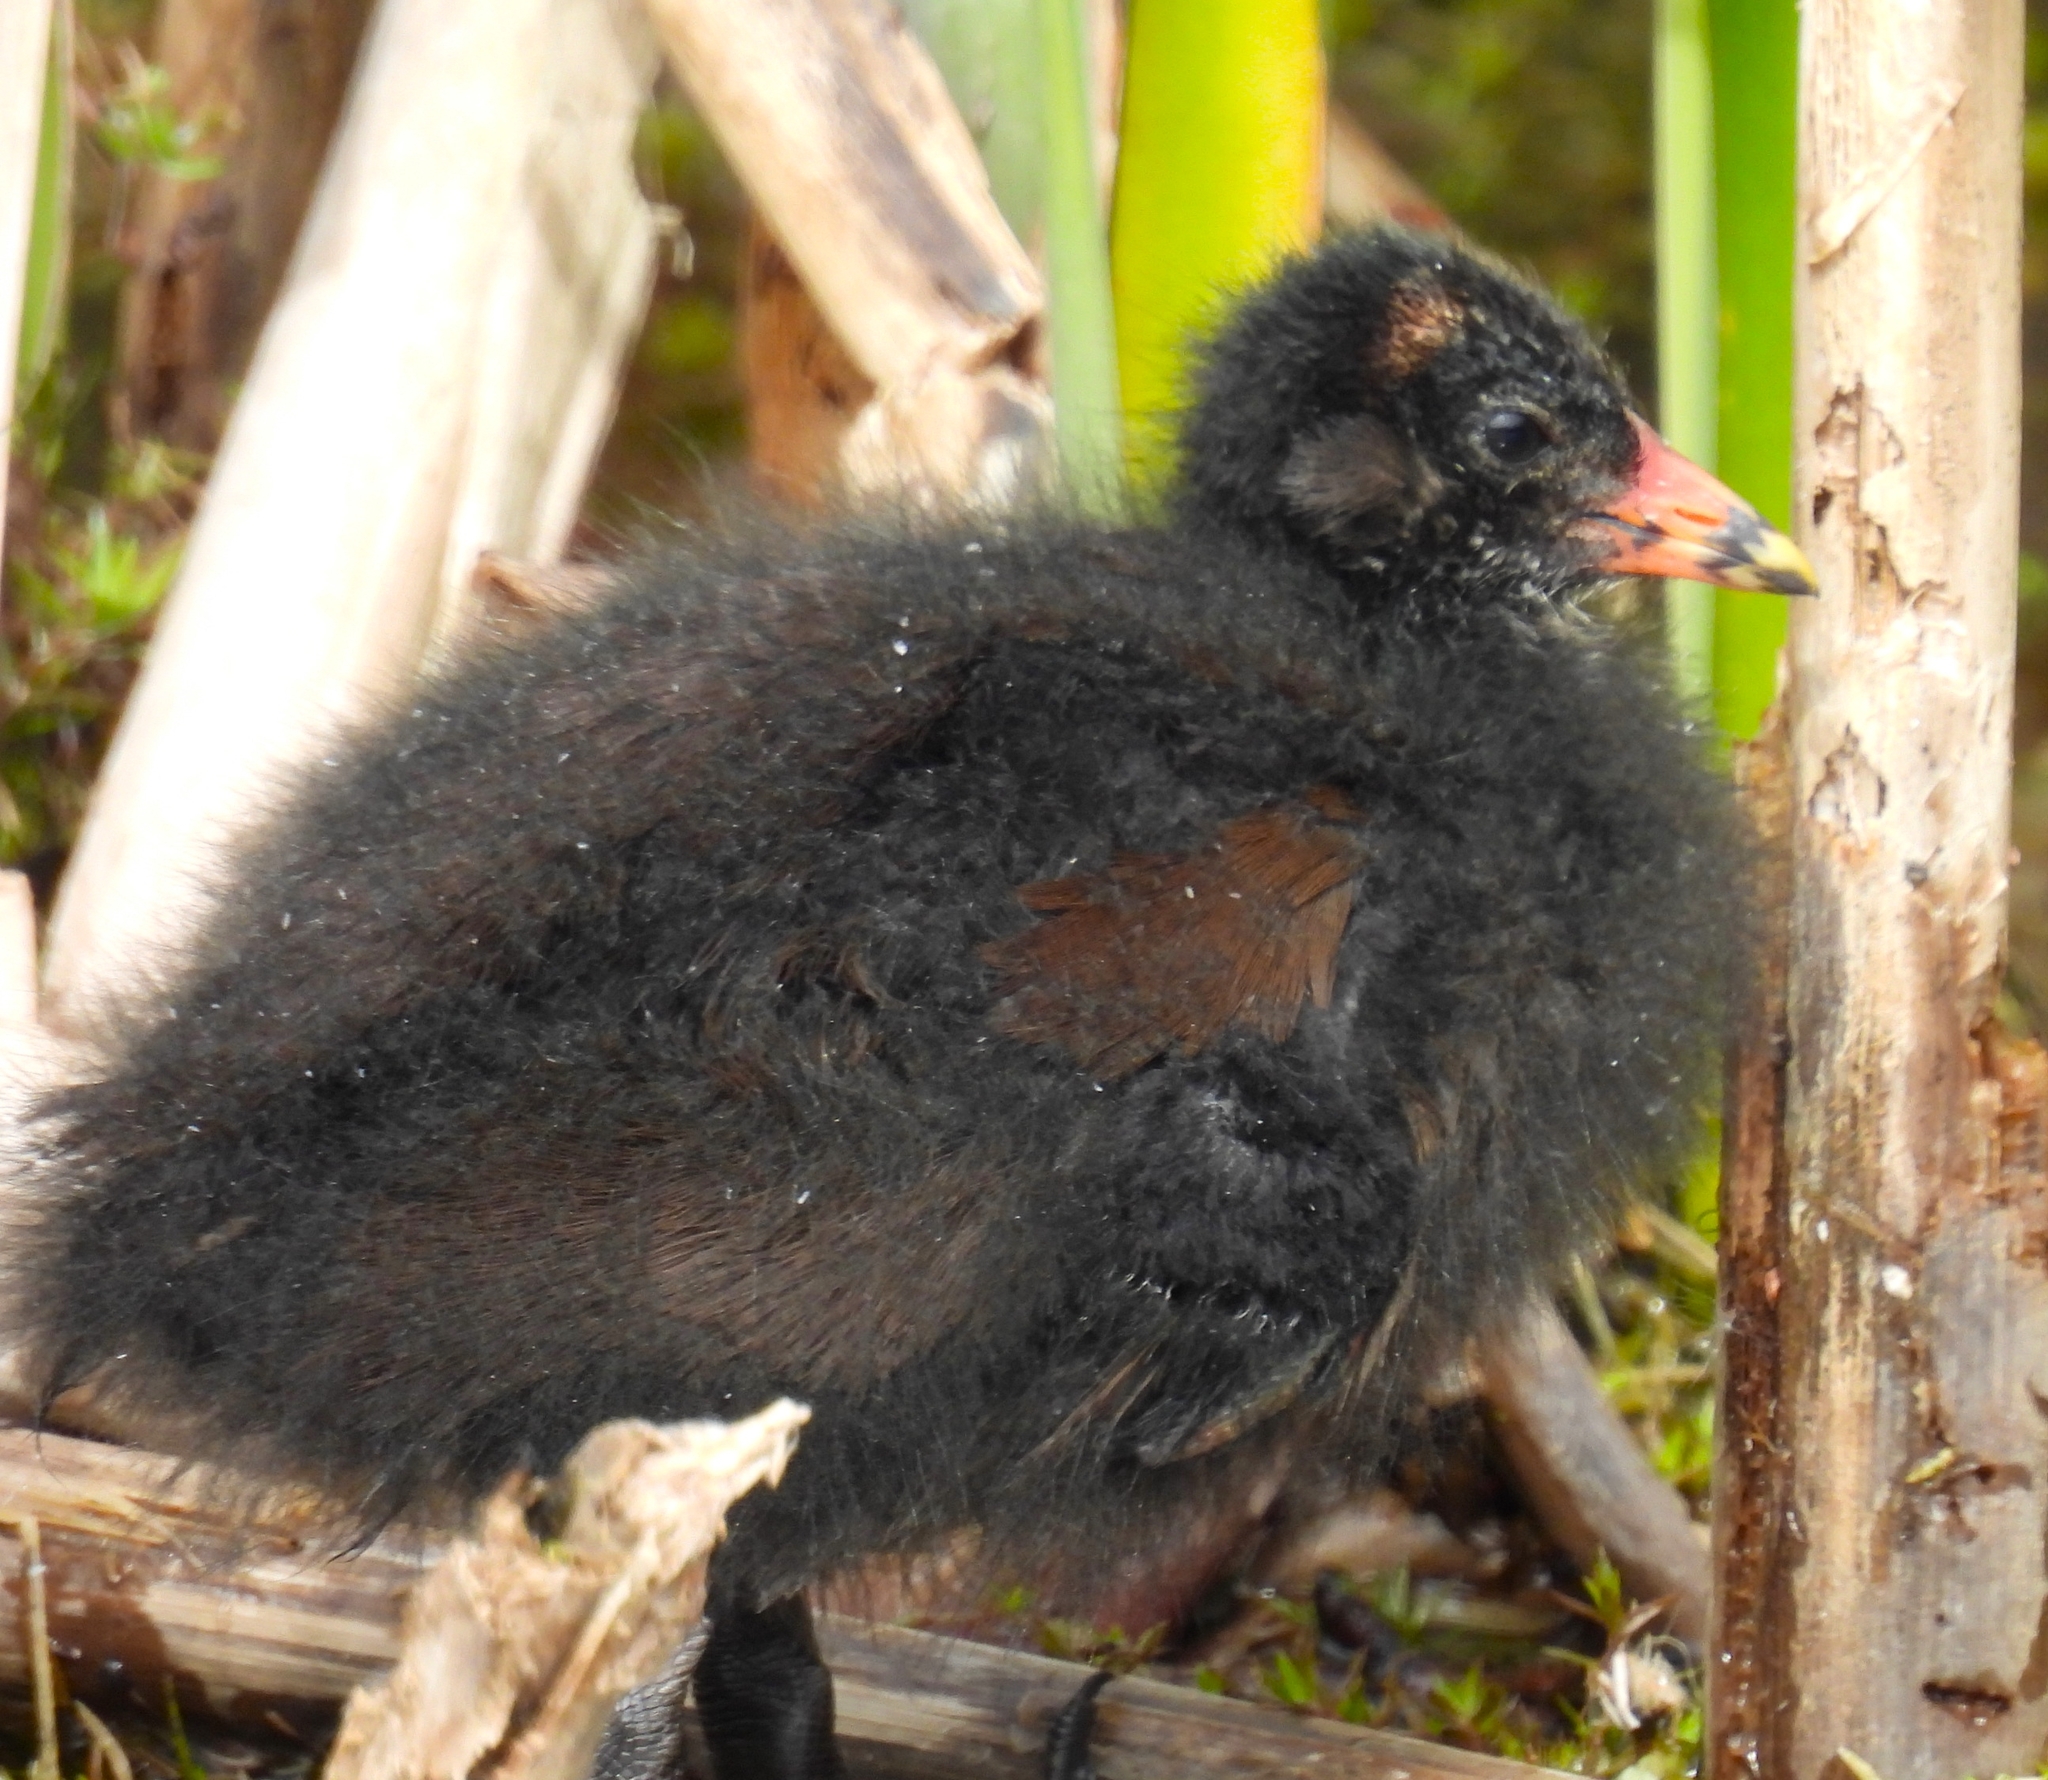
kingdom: Animalia
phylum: Chordata
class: Aves
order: Gruiformes
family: Rallidae
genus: Gallinula
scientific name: Gallinula chloropus
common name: Common moorhen
